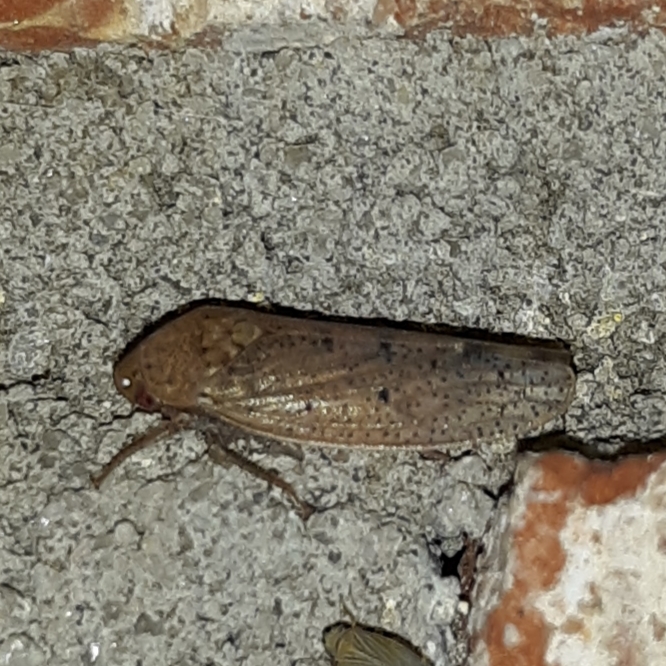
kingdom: Animalia
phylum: Arthropoda
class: Insecta
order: Hemiptera
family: Cicadellidae
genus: Ponana
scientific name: Ponana puncticollis
